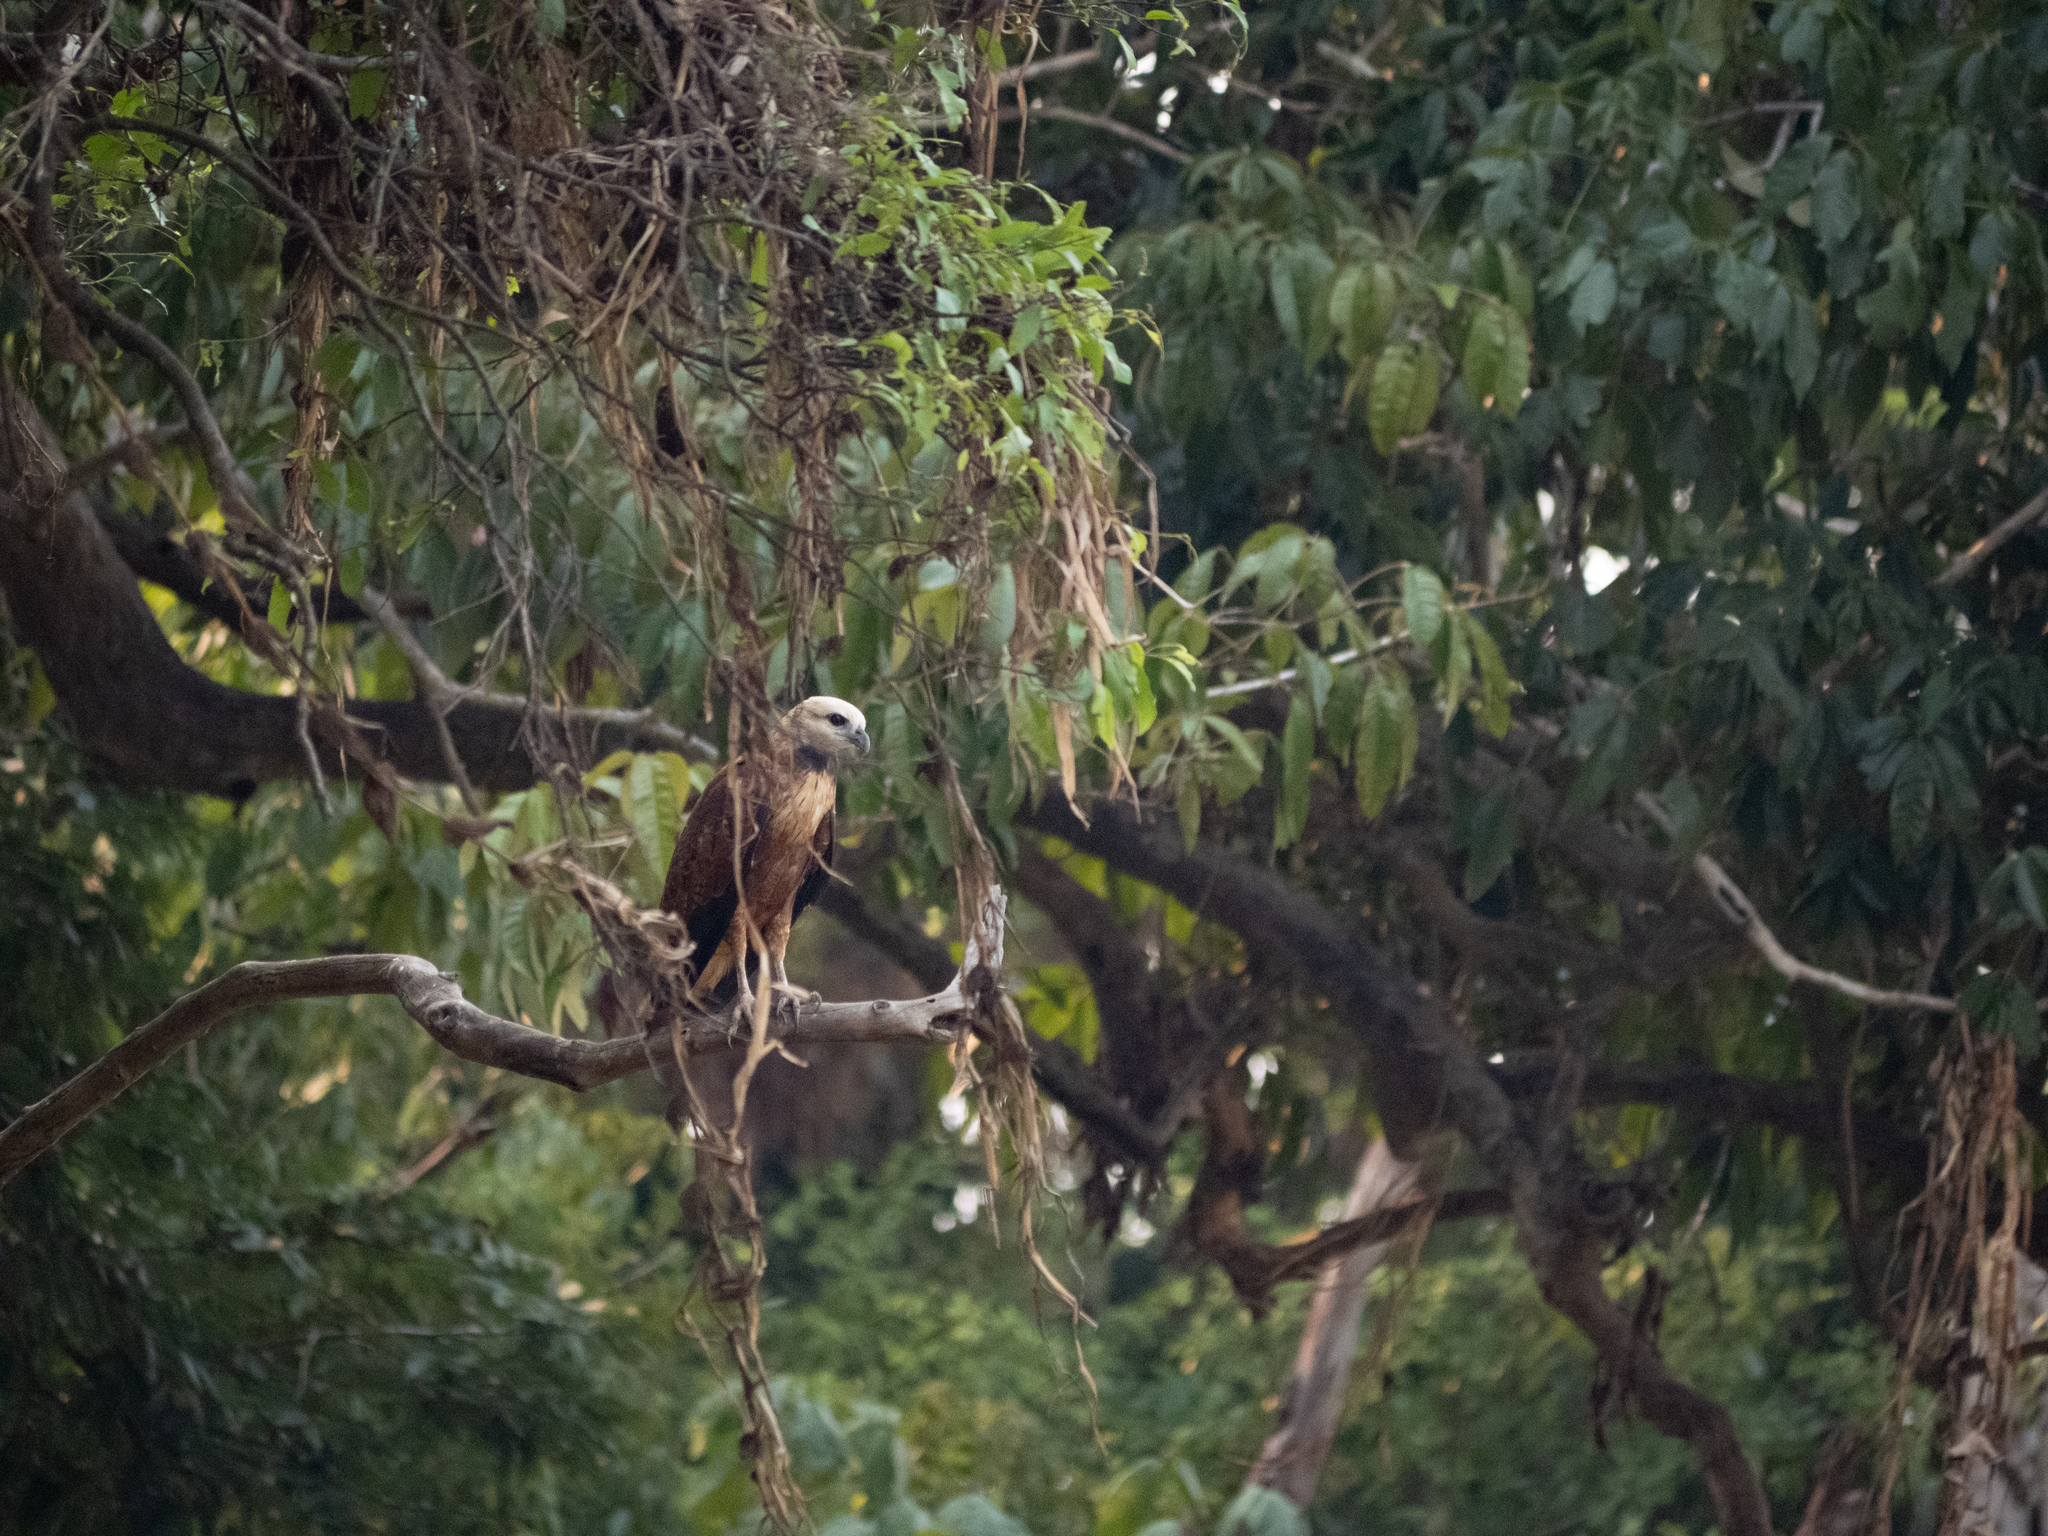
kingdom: Animalia
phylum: Chordata
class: Aves
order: Accipitriformes
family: Accipitridae
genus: Busarellus
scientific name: Busarellus nigricollis
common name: Black-collared hawk
